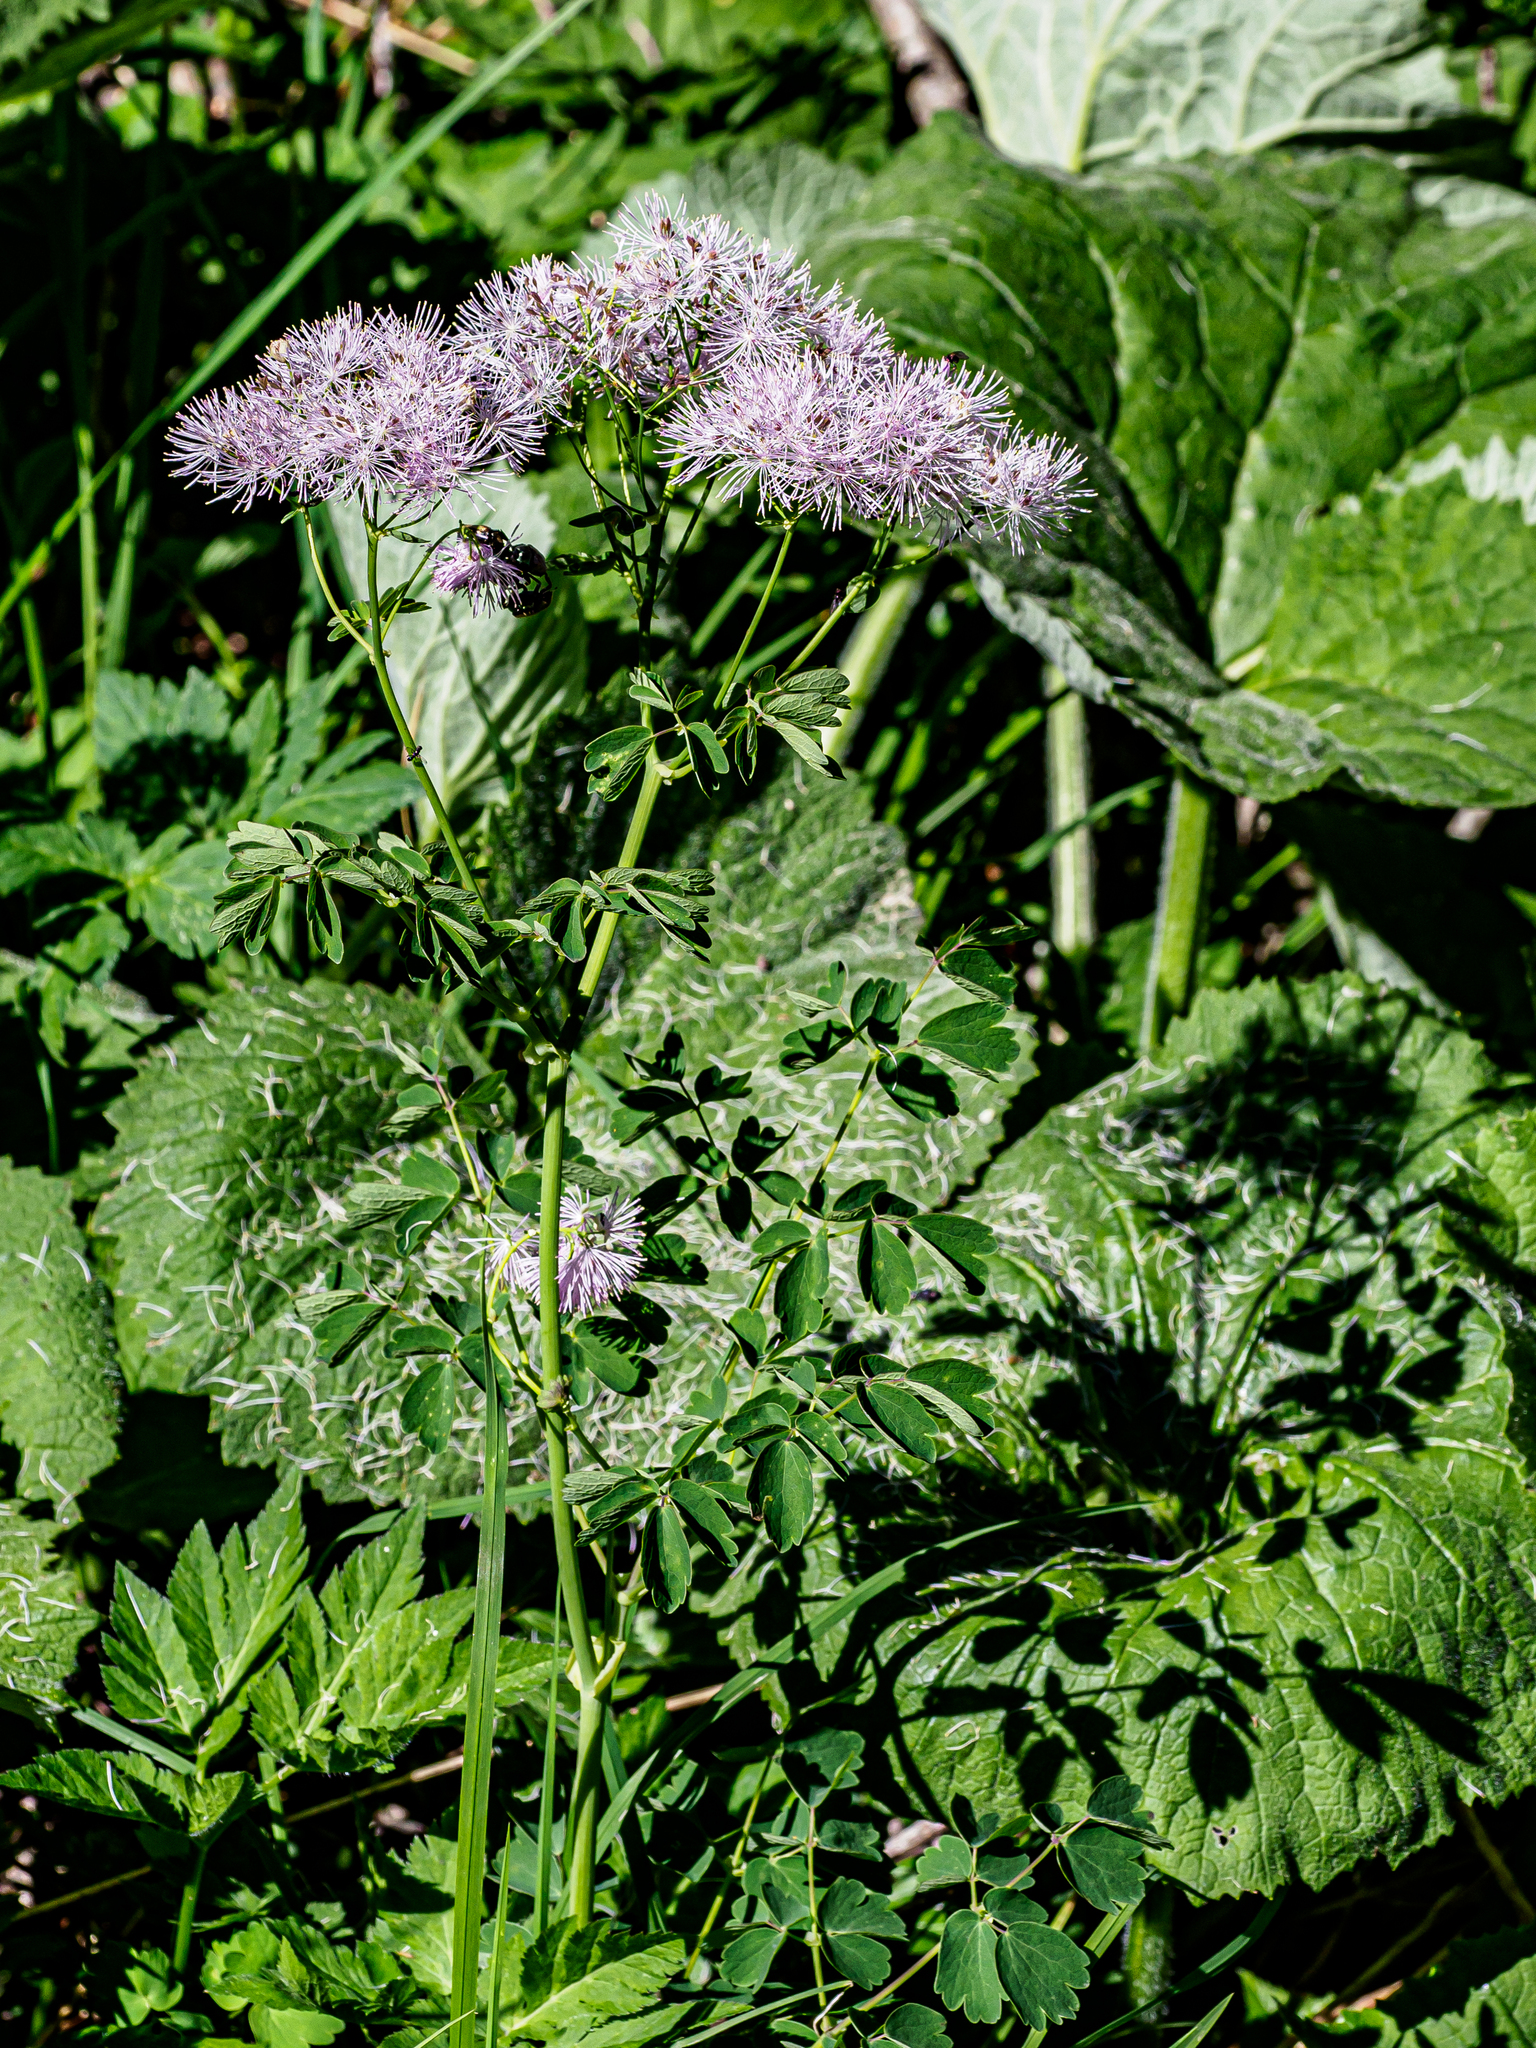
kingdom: Plantae
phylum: Tracheophyta
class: Magnoliopsida
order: Ranunculales
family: Ranunculaceae
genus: Thalictrum
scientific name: Thalictrum aquilegiifolium
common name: French meadow-rue
